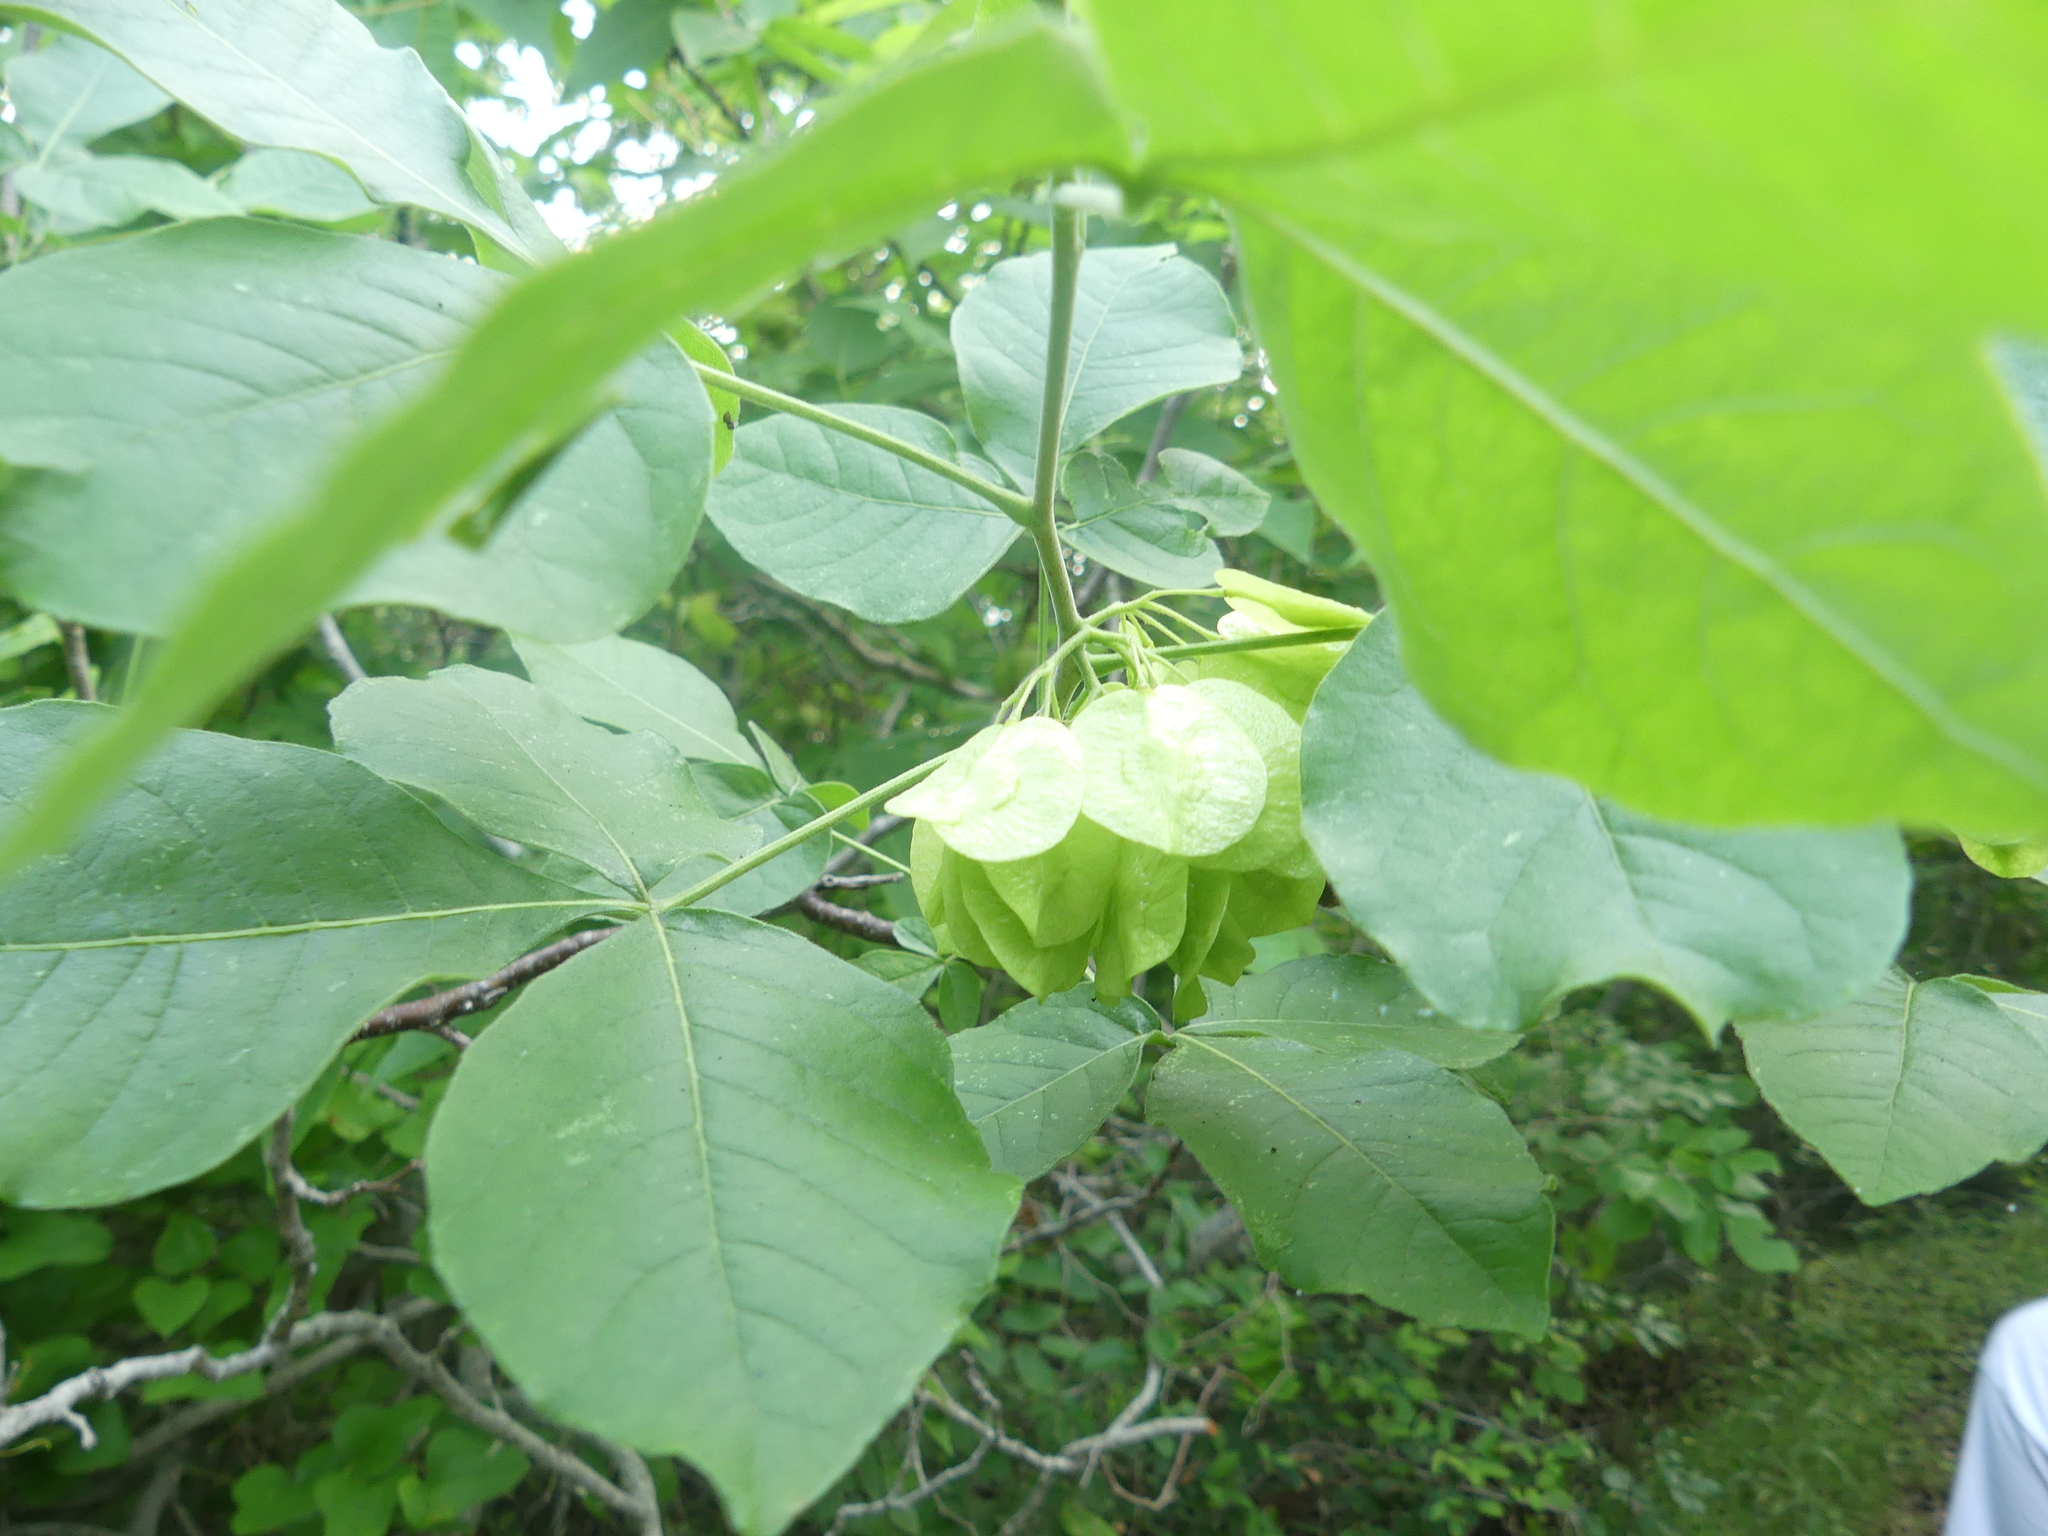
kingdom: Plantae
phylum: Tracheophyta
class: Magnoliopsida
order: Sapindales
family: Rutaceae
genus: Ptelea
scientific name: Ptelea trifoliata
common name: Common hop-tree
